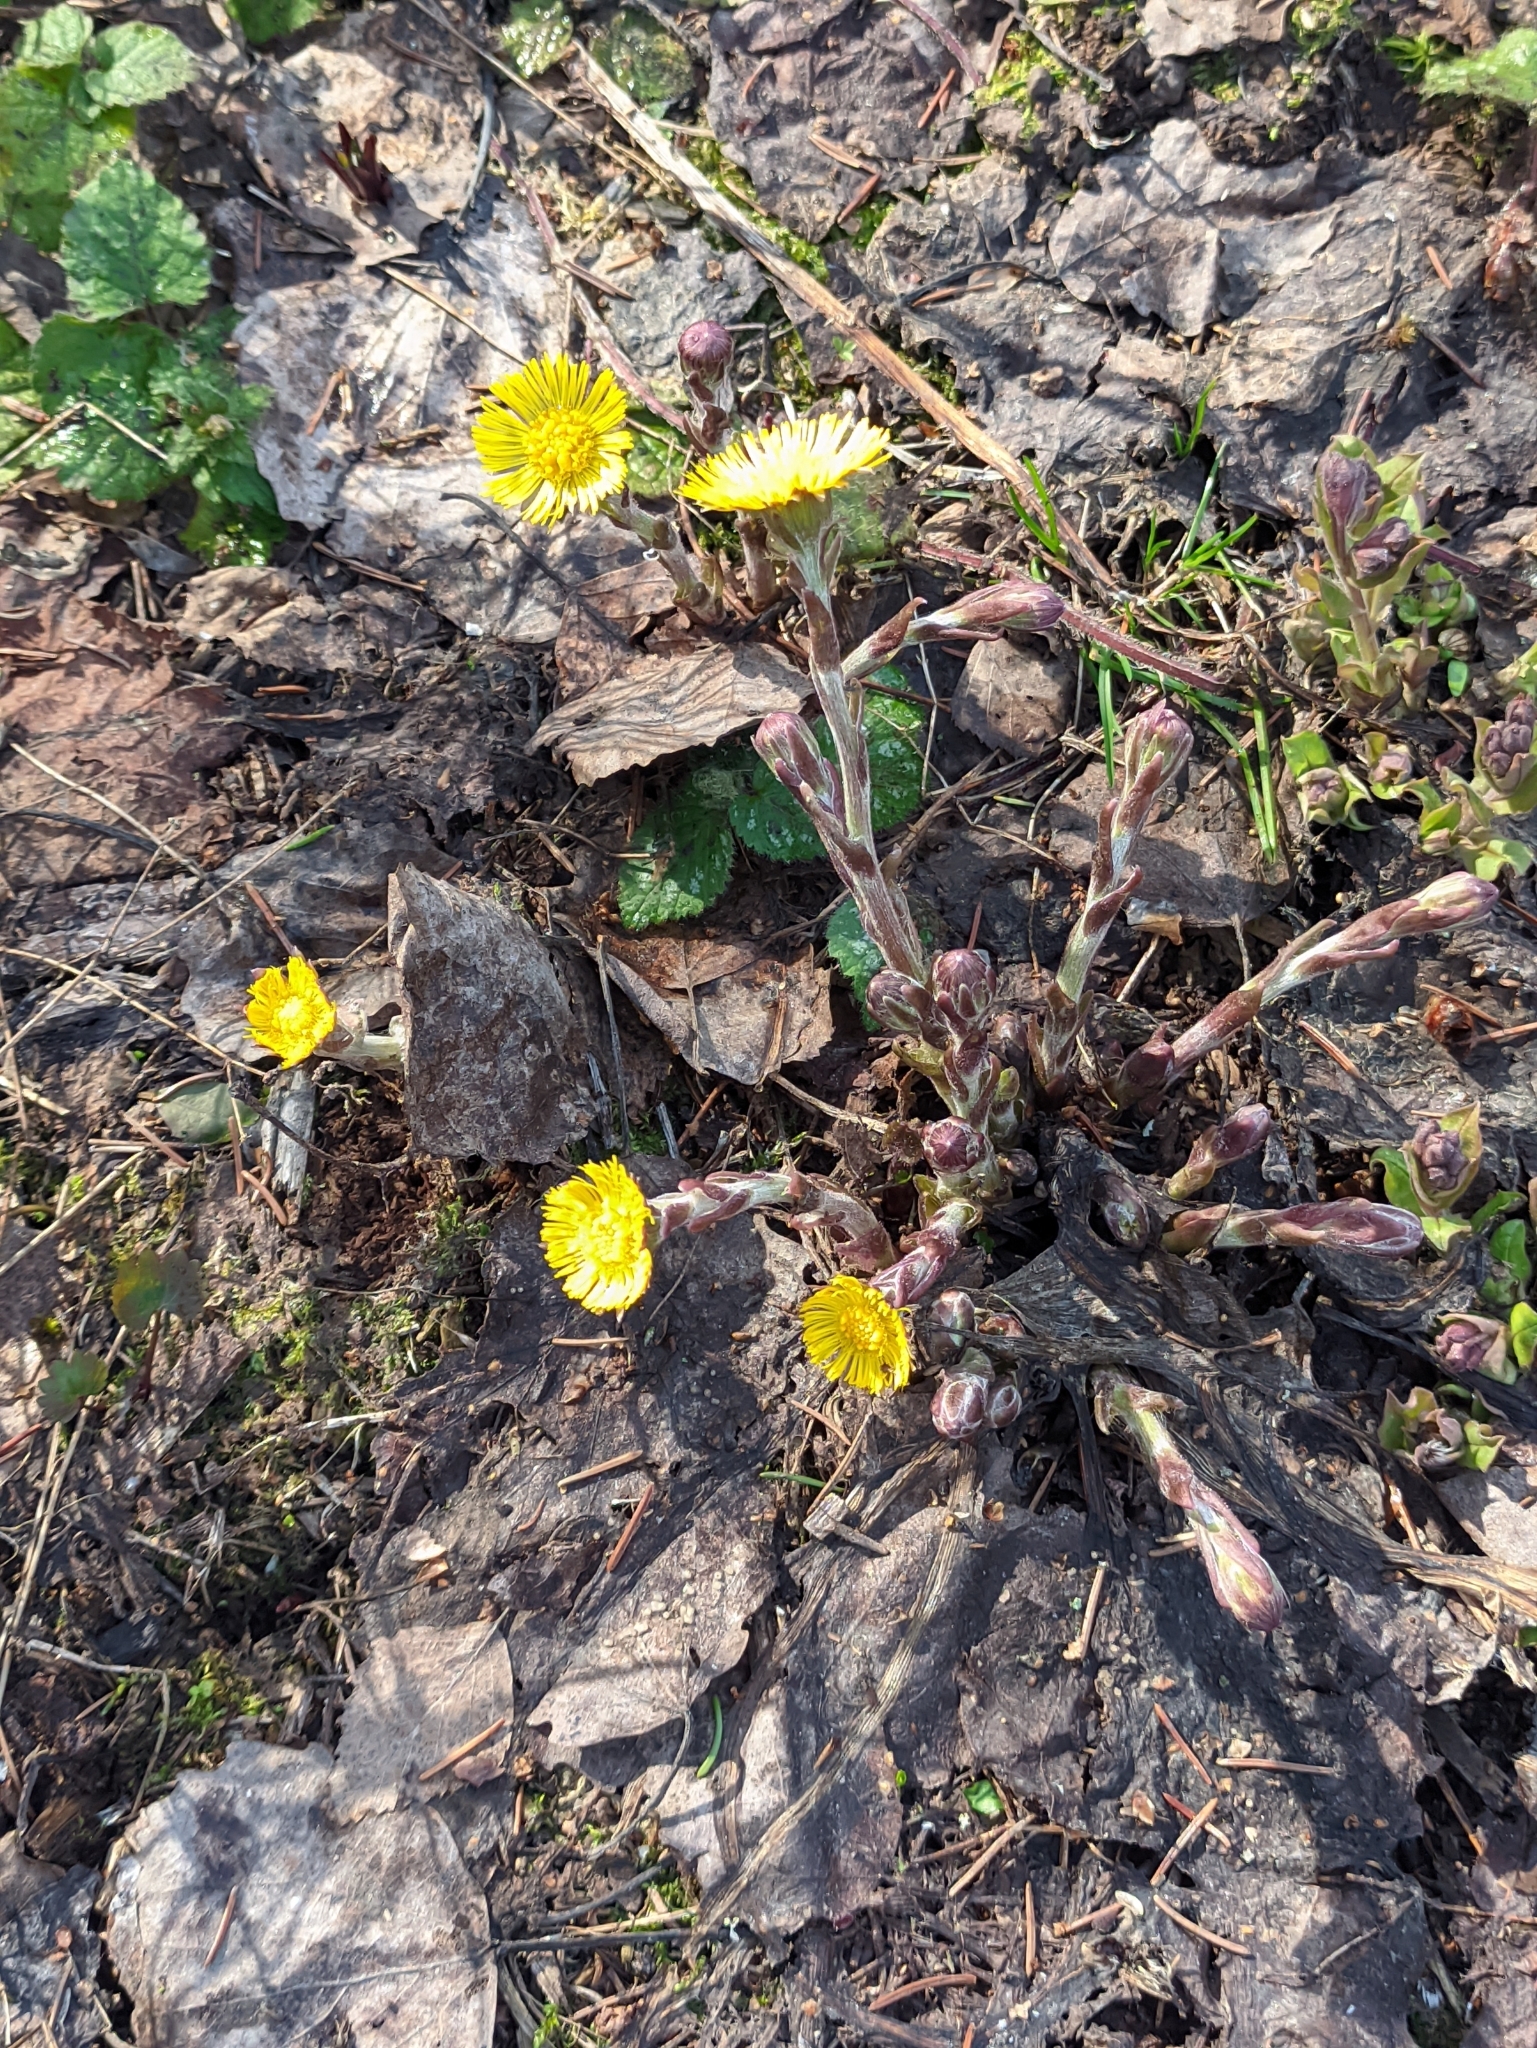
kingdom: Plantae
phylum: Tracheophyta
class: Magnoliopsida
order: Asterales
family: Asteraceae
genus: Tussilago
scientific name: Tussilago farfara
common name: Coltsfoot
